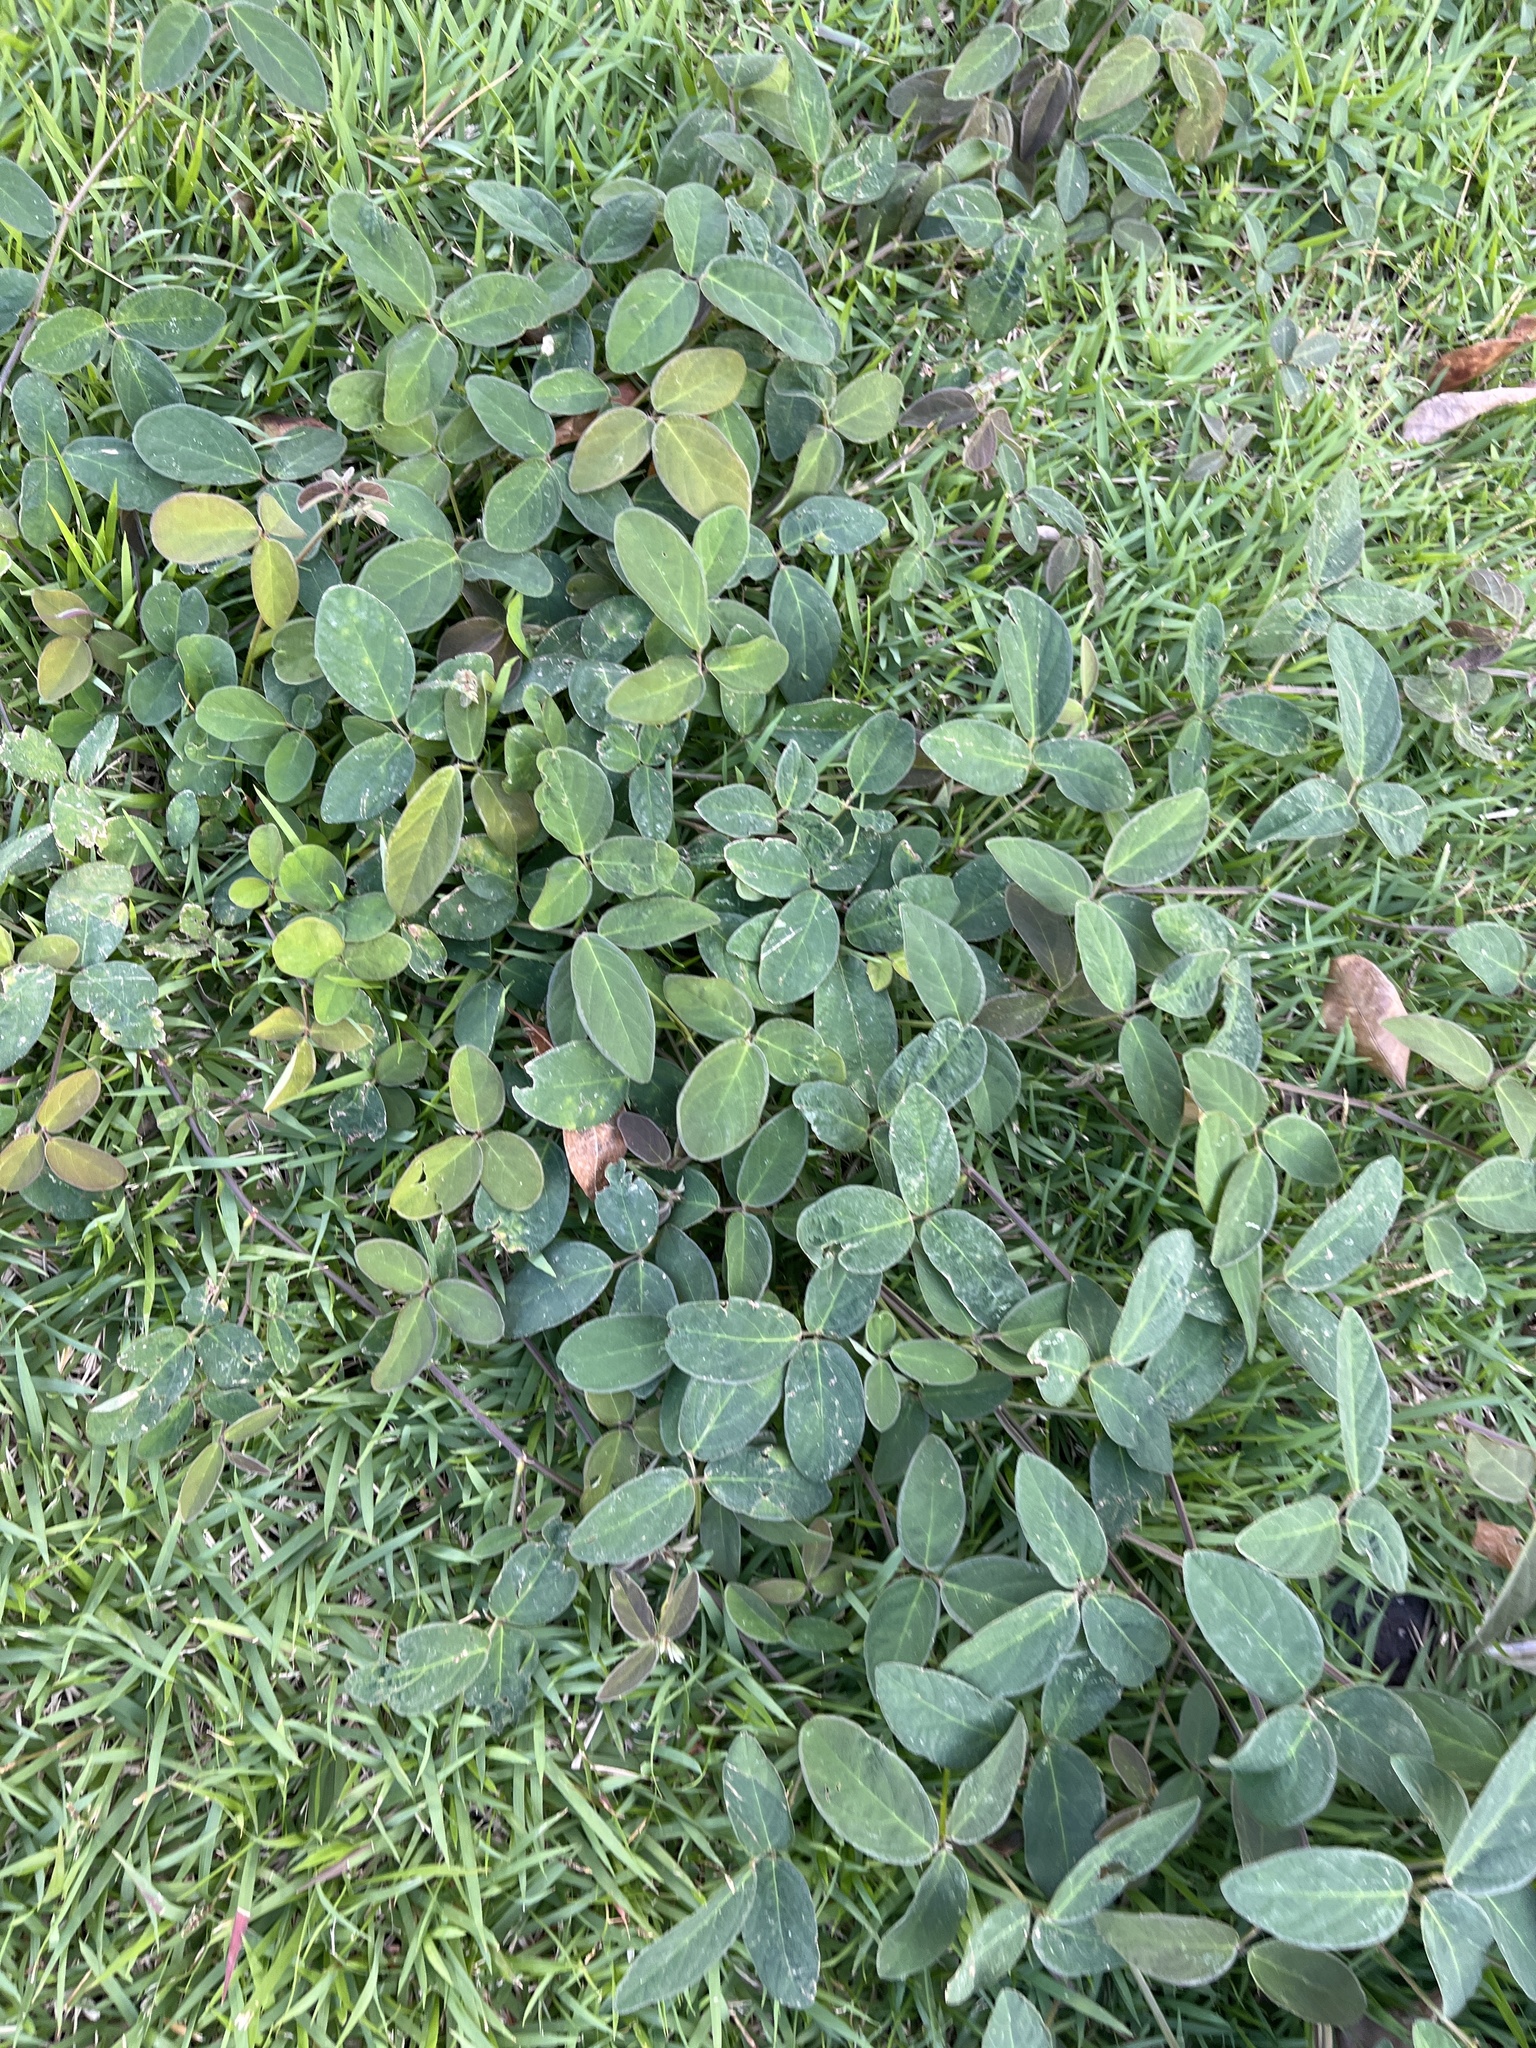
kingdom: Plantae
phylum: Tracheophyta
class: Magnoliopsida
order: Fabales
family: Fabaceae
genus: Desmodium
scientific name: Desmodium incanum
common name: Tickclover
